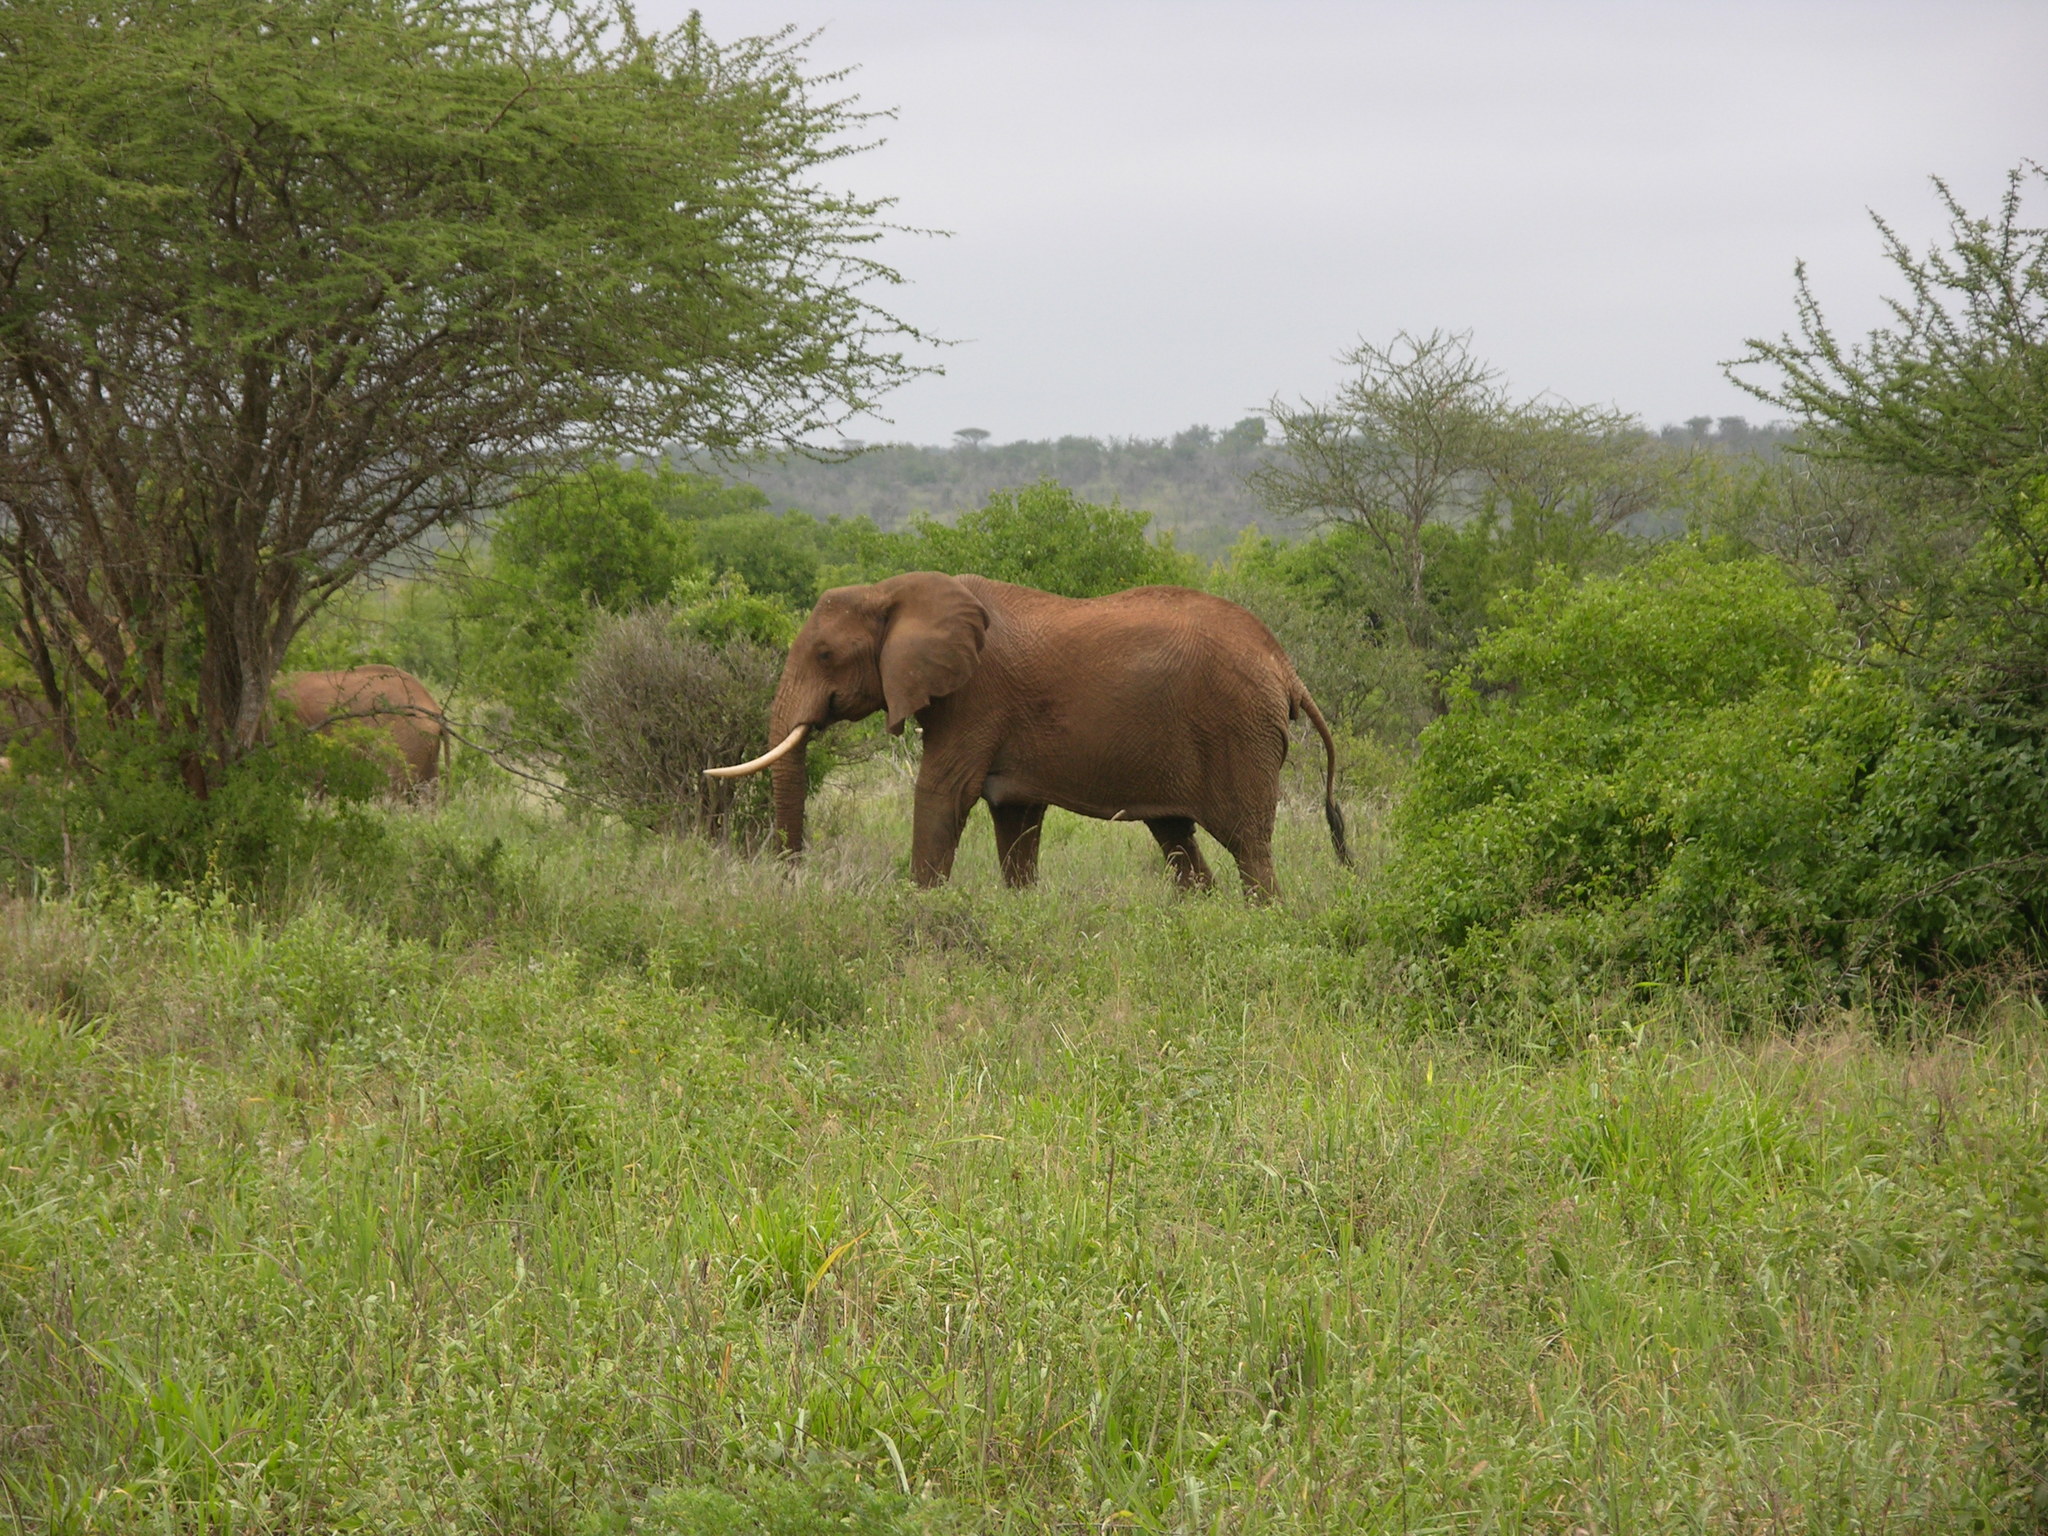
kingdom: Animalia
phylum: Chordata
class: Mammalia
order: Proboscidea
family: Elephantidae
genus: Loxodonta
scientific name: Loxodonta africana
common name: African elephant
